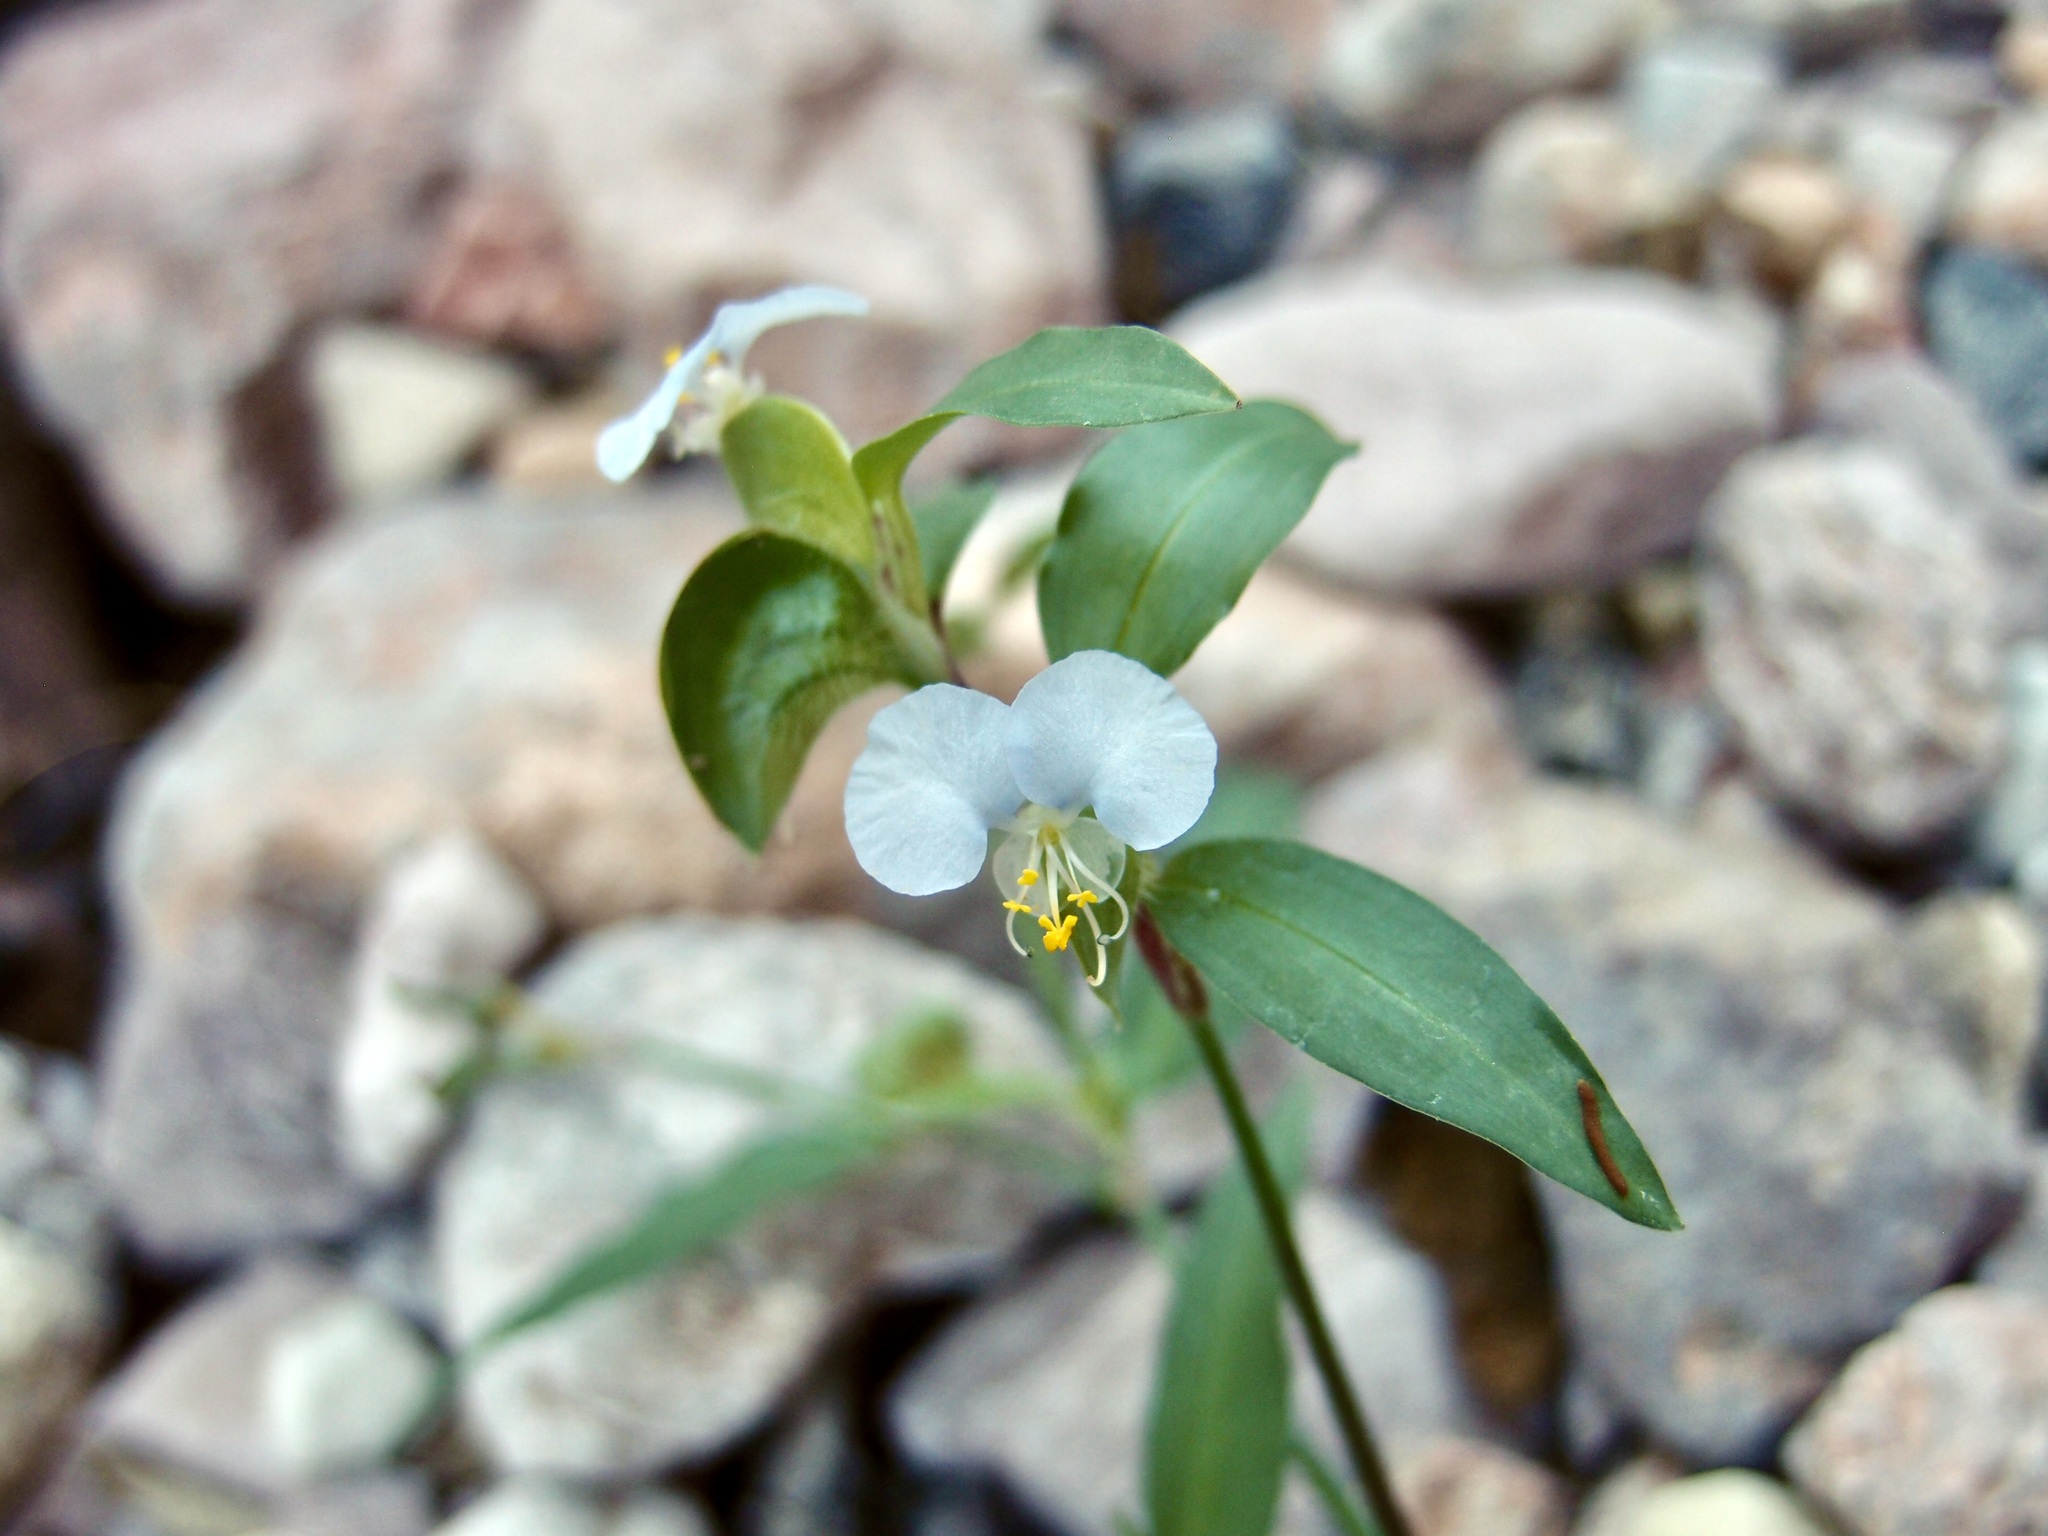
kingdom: Plantae
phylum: Tracheophyta
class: Liliopsida
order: Commelinales
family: Commelinaceae
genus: Commelina
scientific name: Commelina erecta
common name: Blousel blommetjie
